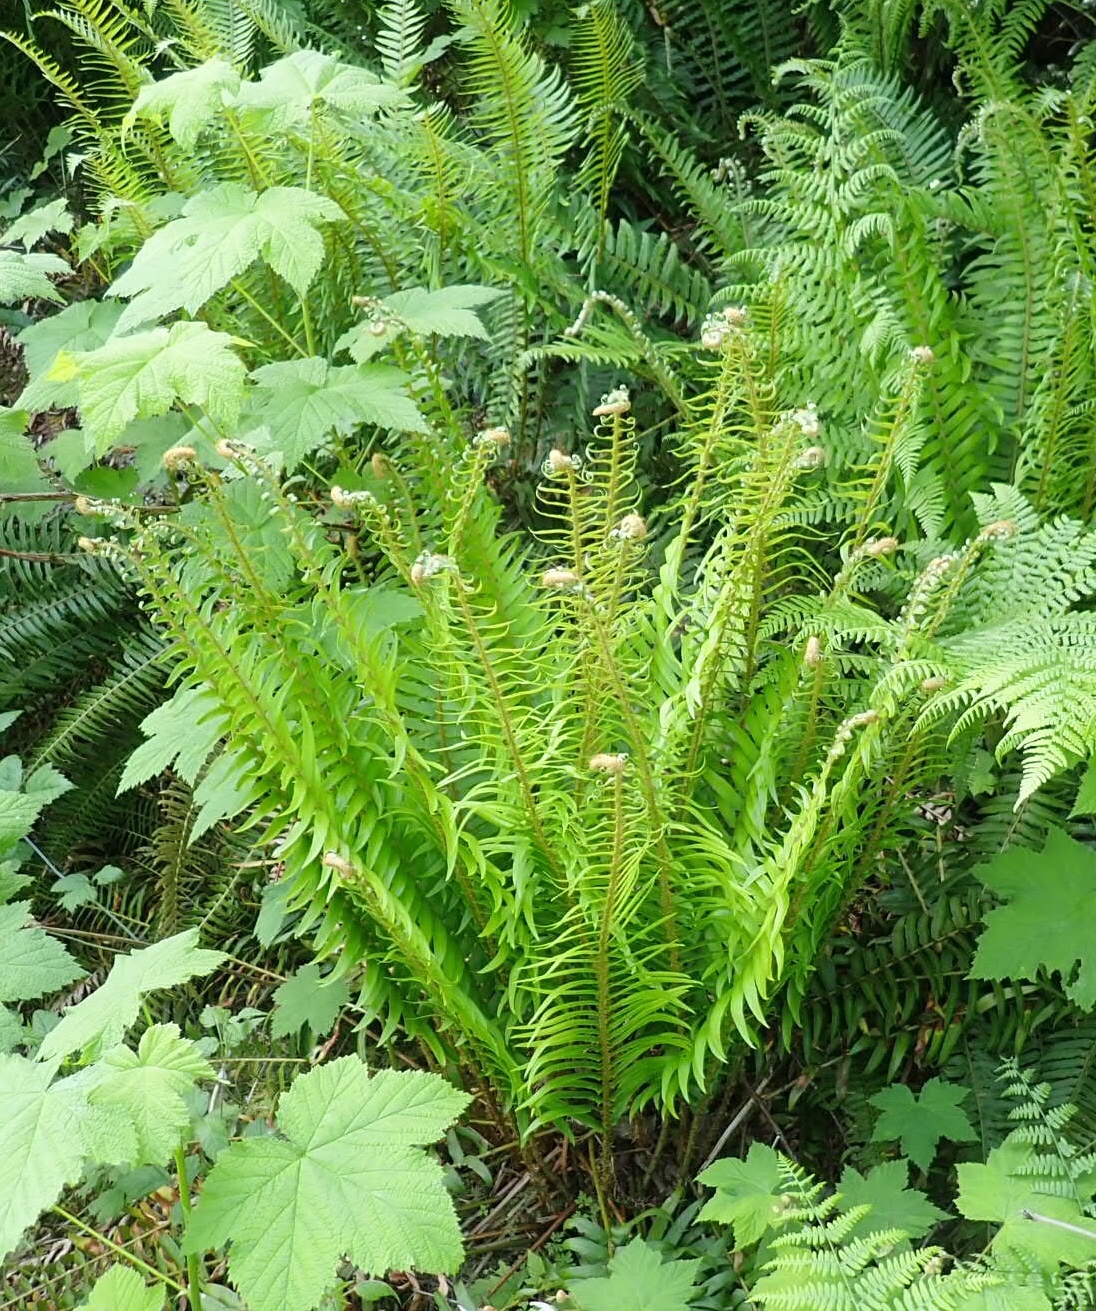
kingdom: Plantae
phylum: Tracheophyta
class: Polypodiopsida
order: Polypodiales
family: Dryopteridaceae
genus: Polystichum
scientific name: Polystichum munitum
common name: Western sword-fern
